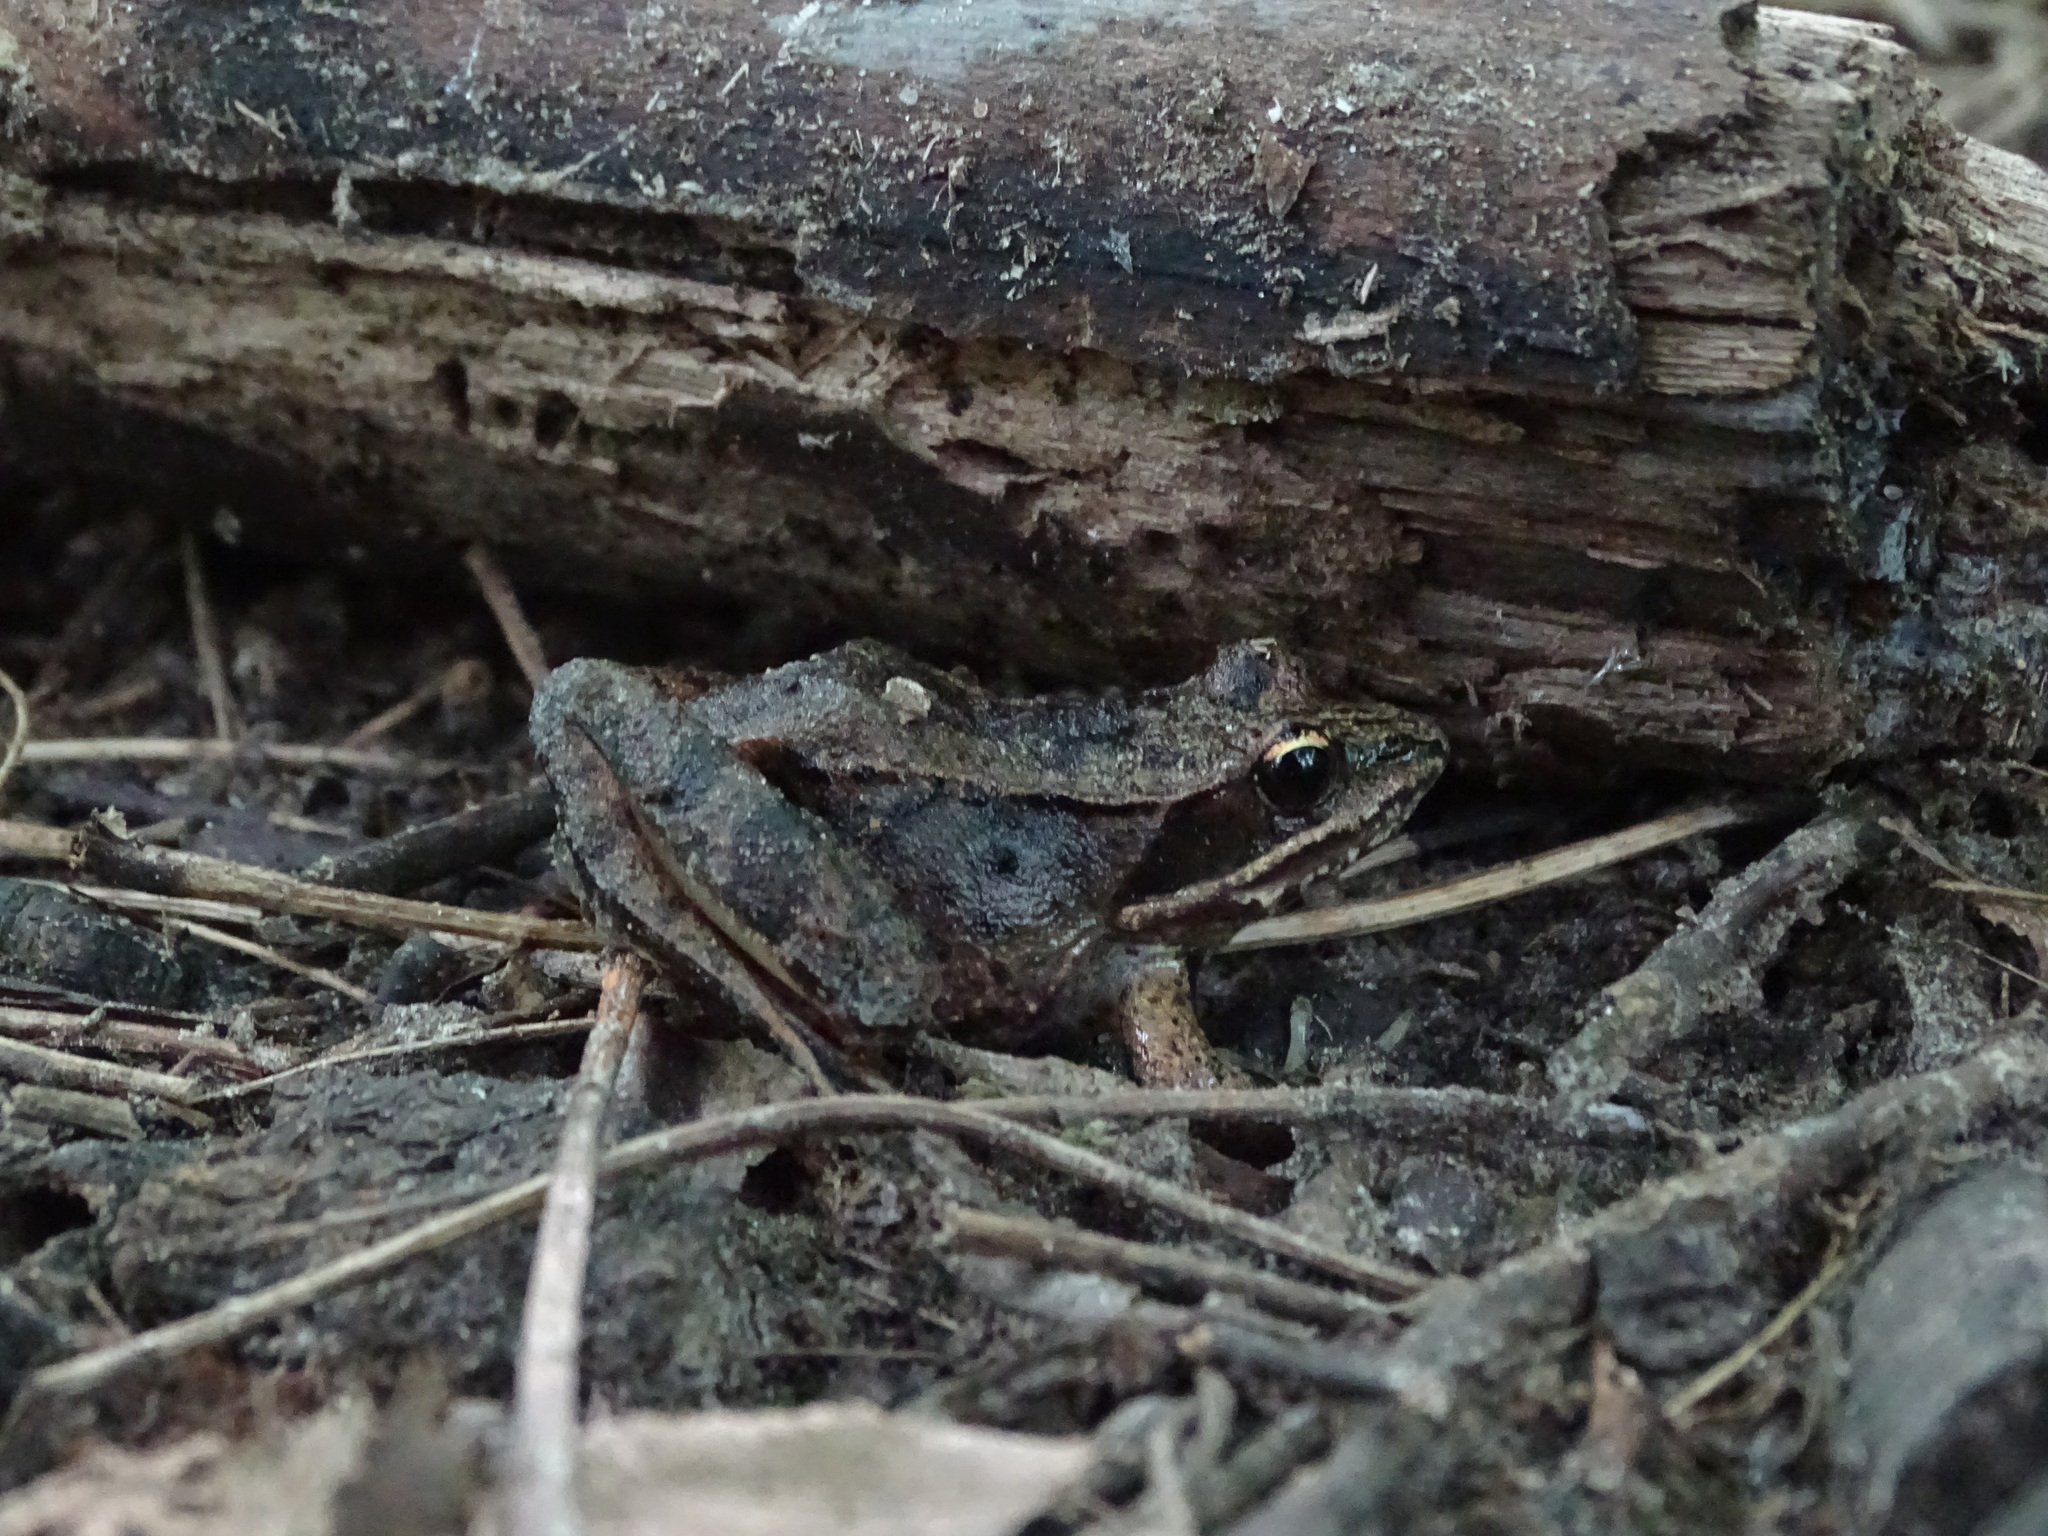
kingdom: Animalia
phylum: Chordata
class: Amphibia
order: Anura
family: Ranidae
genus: Lithobates
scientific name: Lithobates sylvaticus
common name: Wood frog
